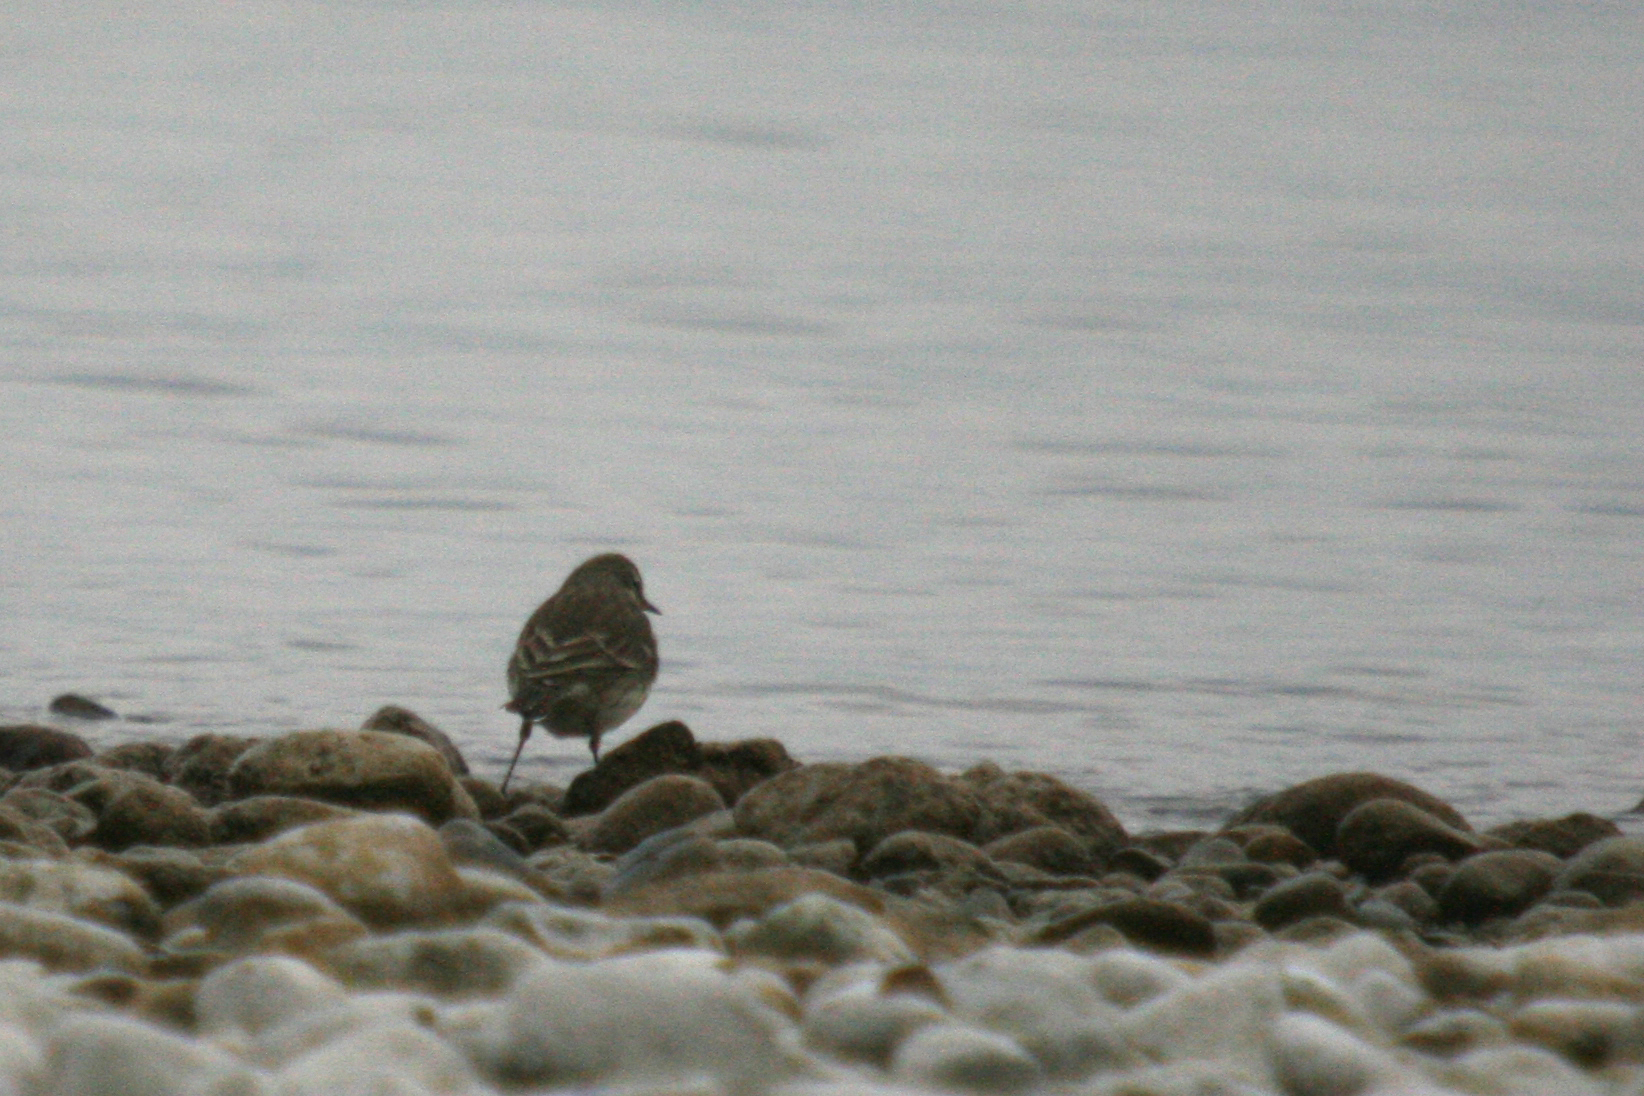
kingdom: Animalia
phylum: Chordata
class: Aves
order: Passeriformes
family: Motacillidae
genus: Anthus
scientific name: Anthus spinoletta
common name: Water pipit
